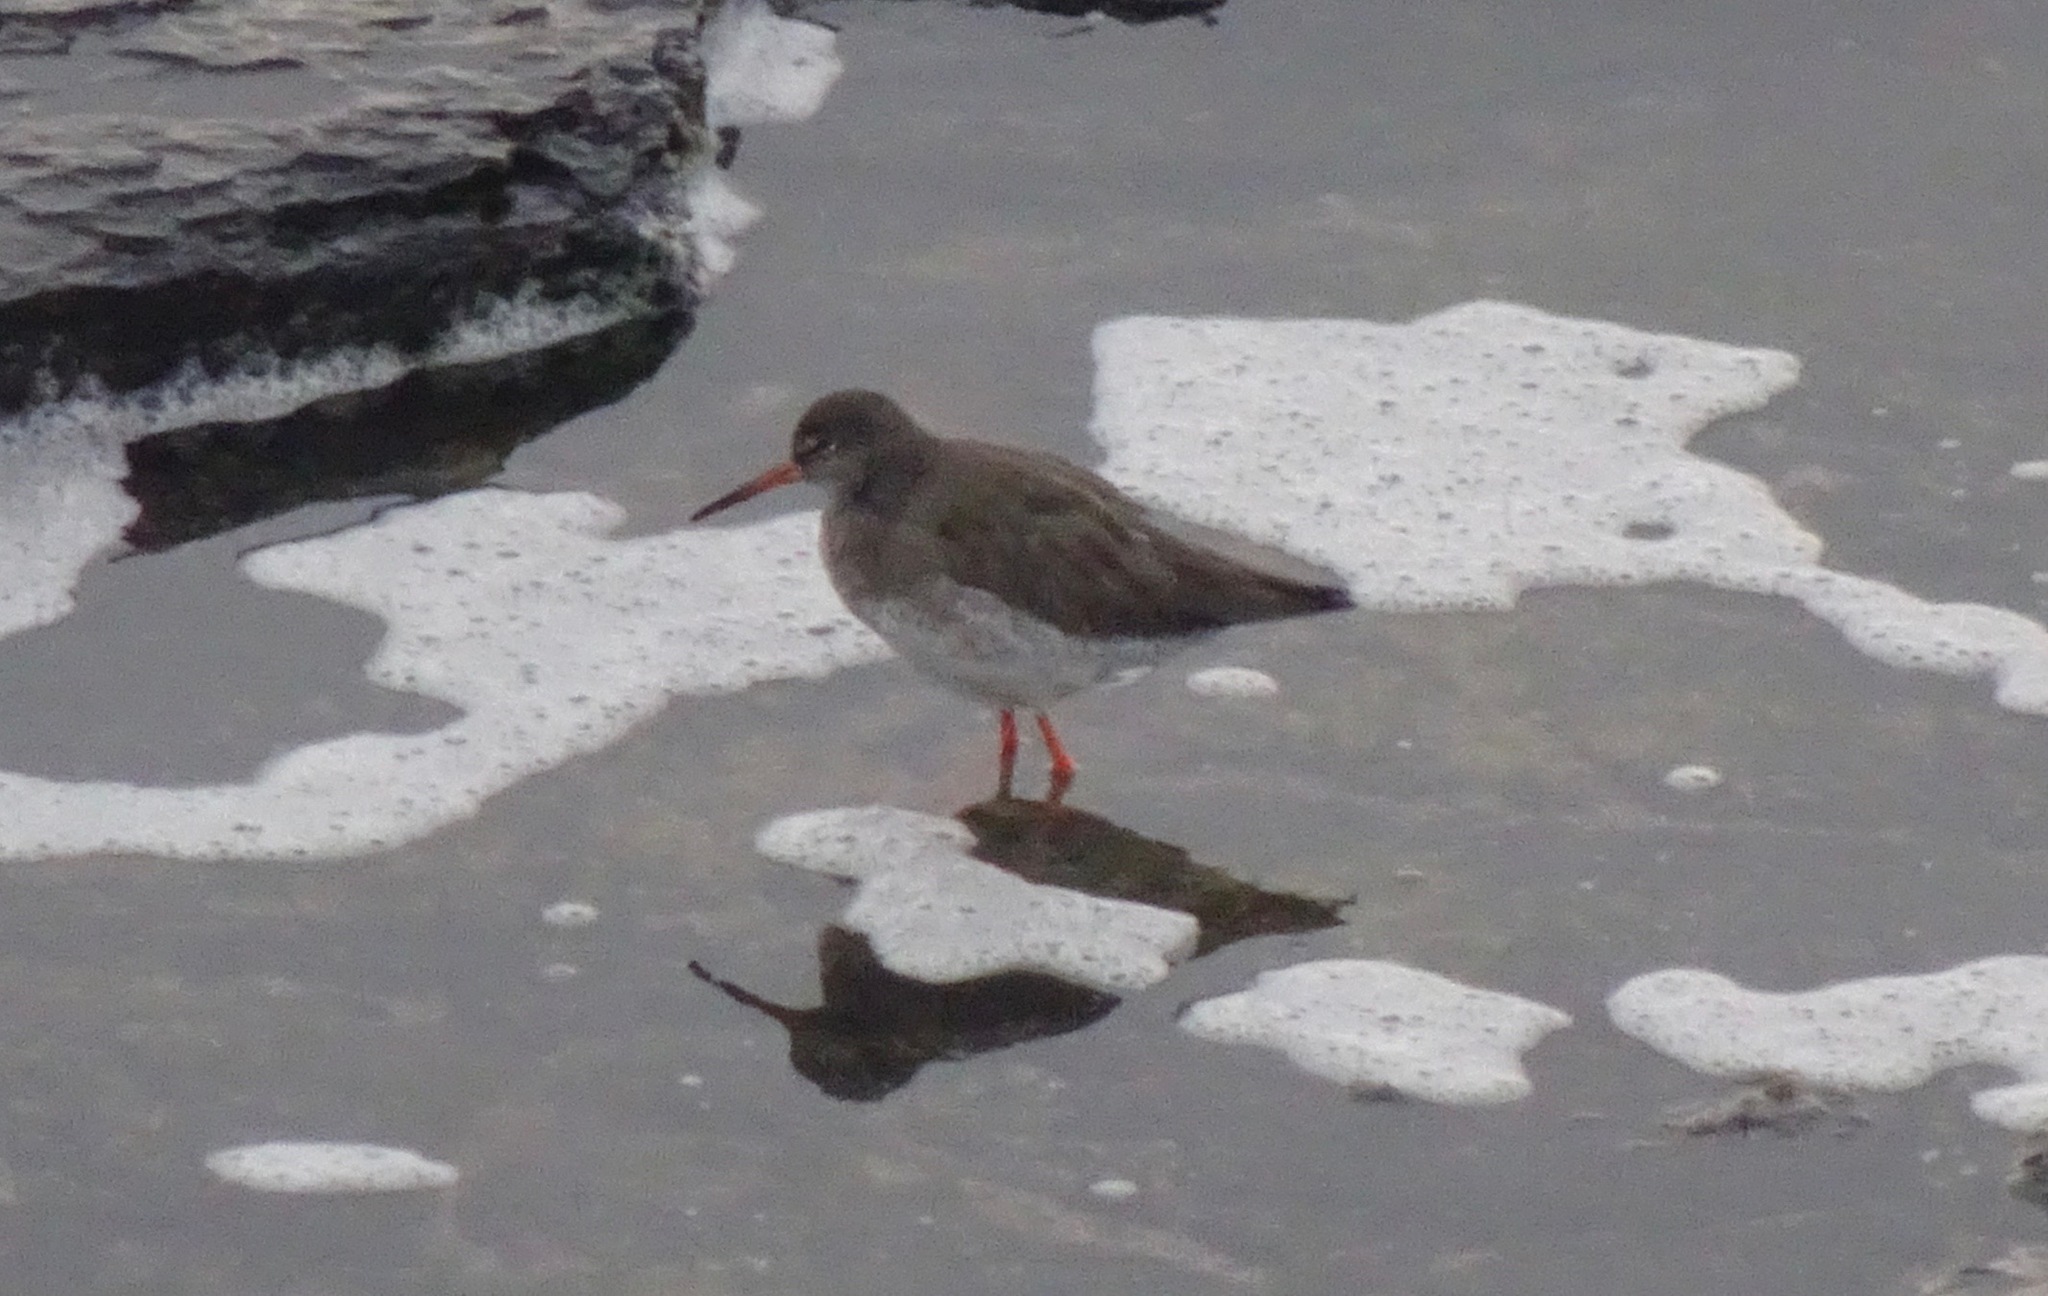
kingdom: Animalia
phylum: Chordata
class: Aves
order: Charadriiformes
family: Scolopacidae
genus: Tringa
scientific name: Tringa totanus
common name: Common redshank
